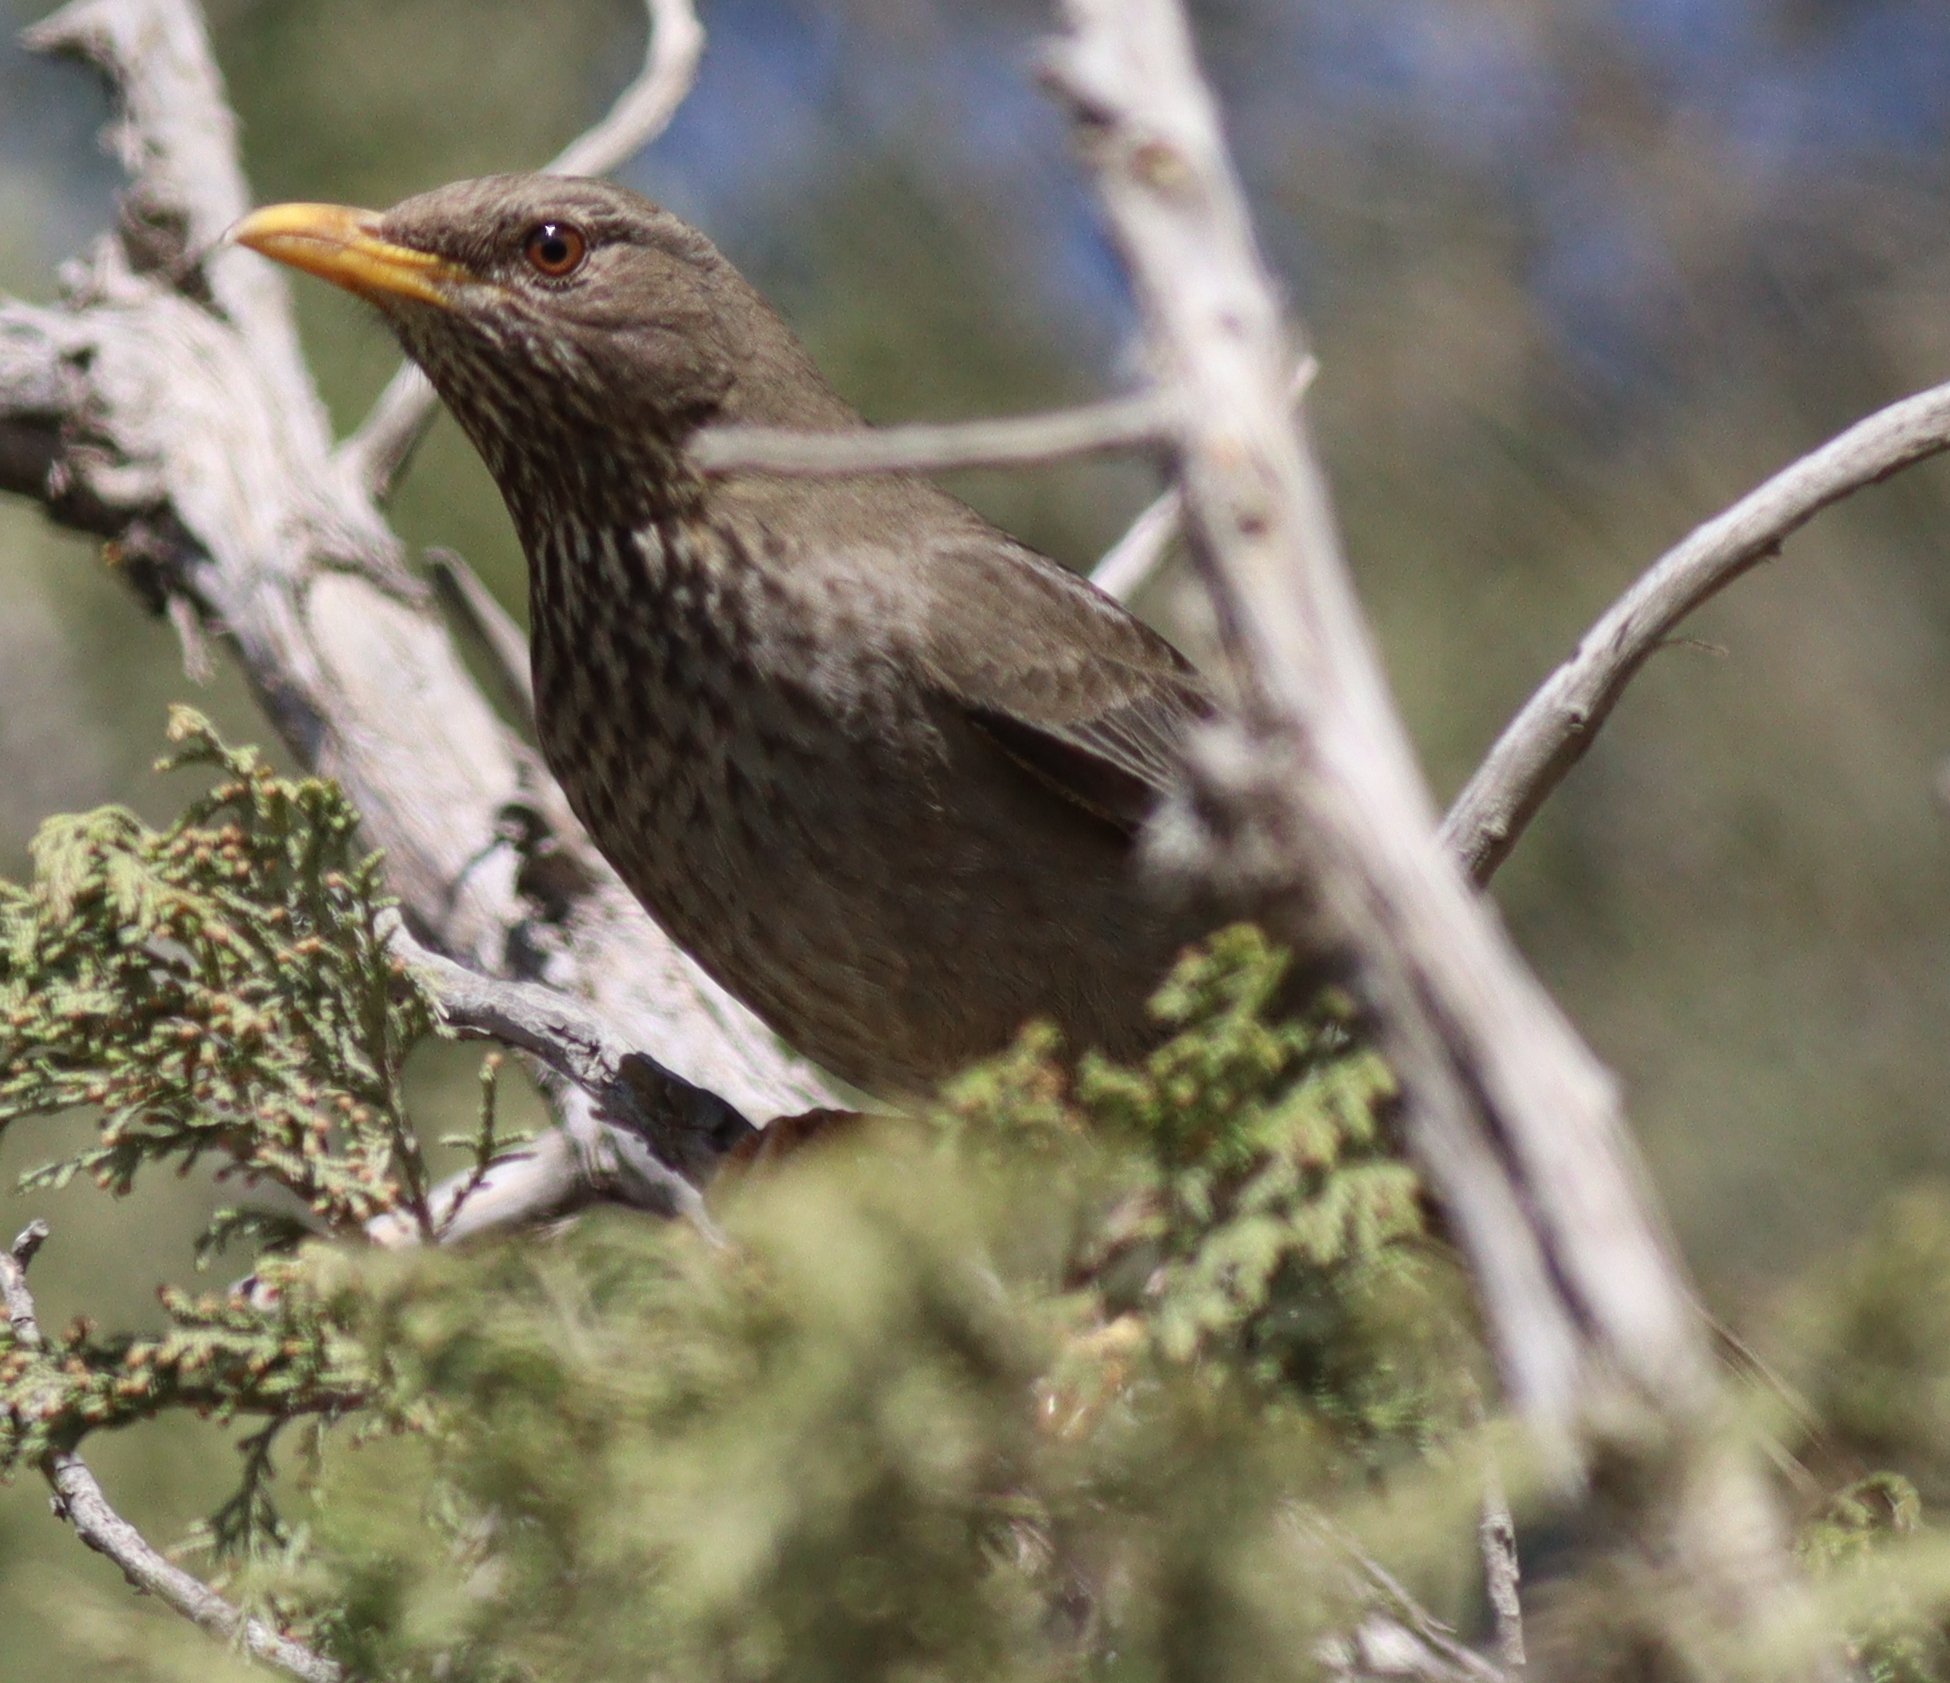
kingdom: Animalia
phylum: Chordata
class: Aves
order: Passeriformes
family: Turdidae
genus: Turdus
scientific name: Turdus menachensis
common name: Yemen thrush
